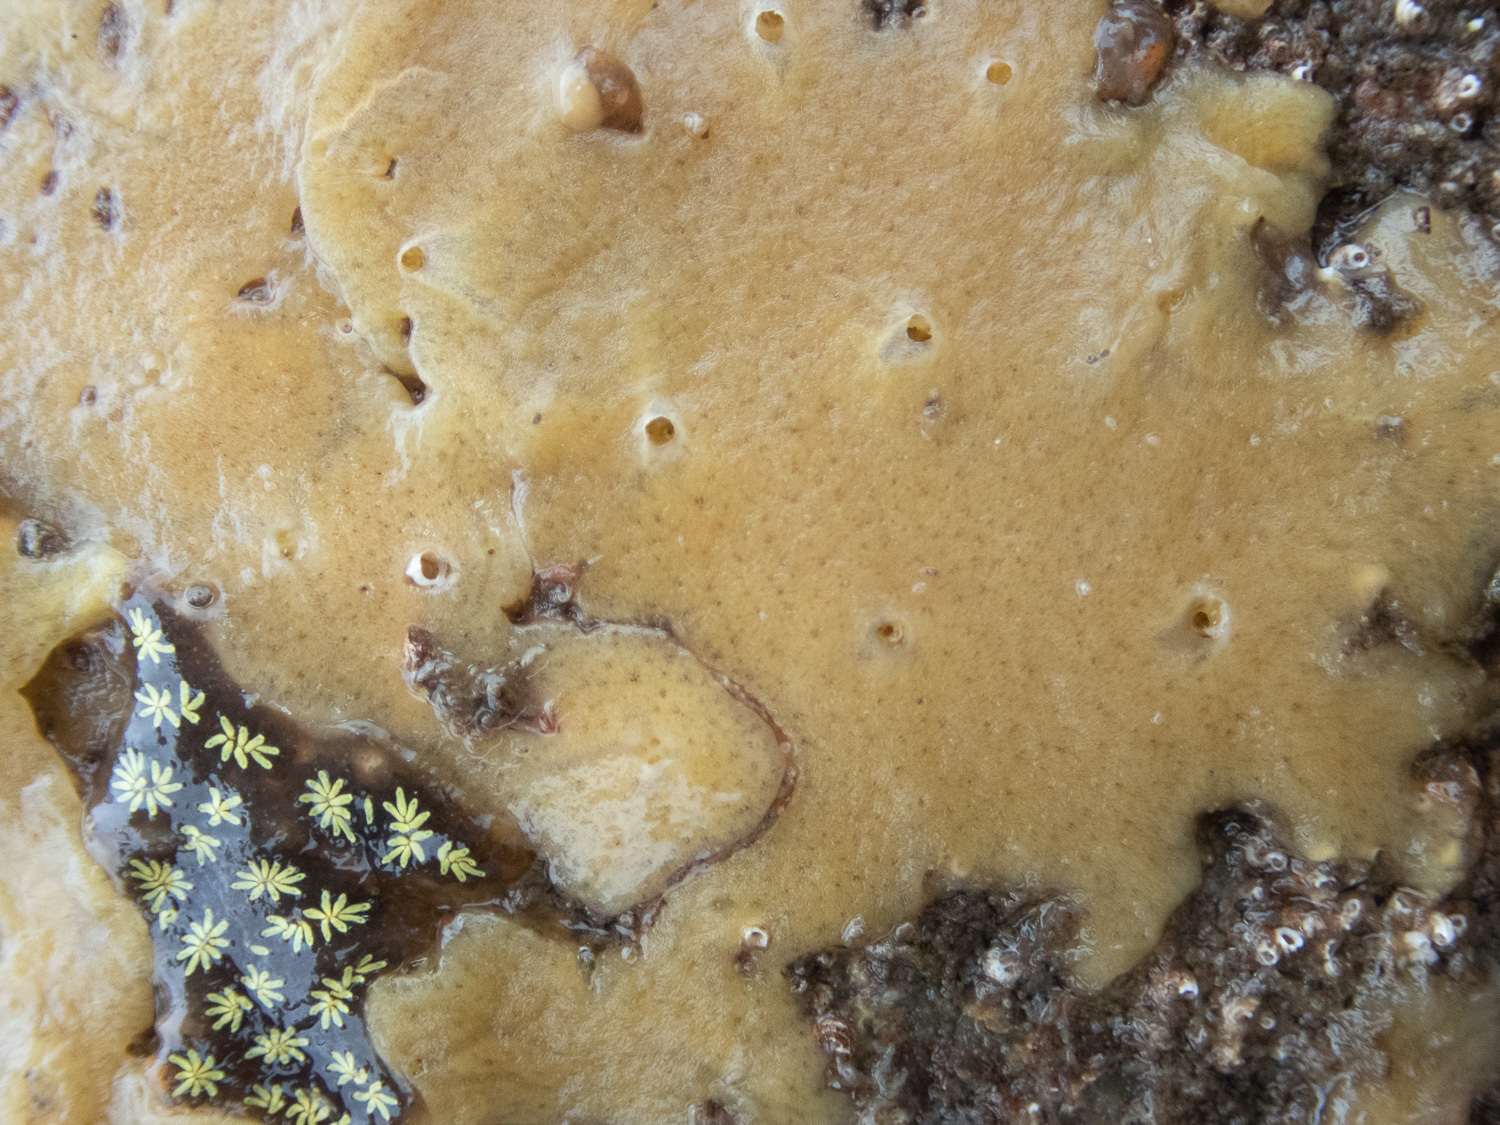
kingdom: Animalia
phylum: Porifera
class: Demospongiae
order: Suberitida
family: Halichondriidae
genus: Halichondria
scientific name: Halichondria panicea
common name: Breadcrumb sponge
